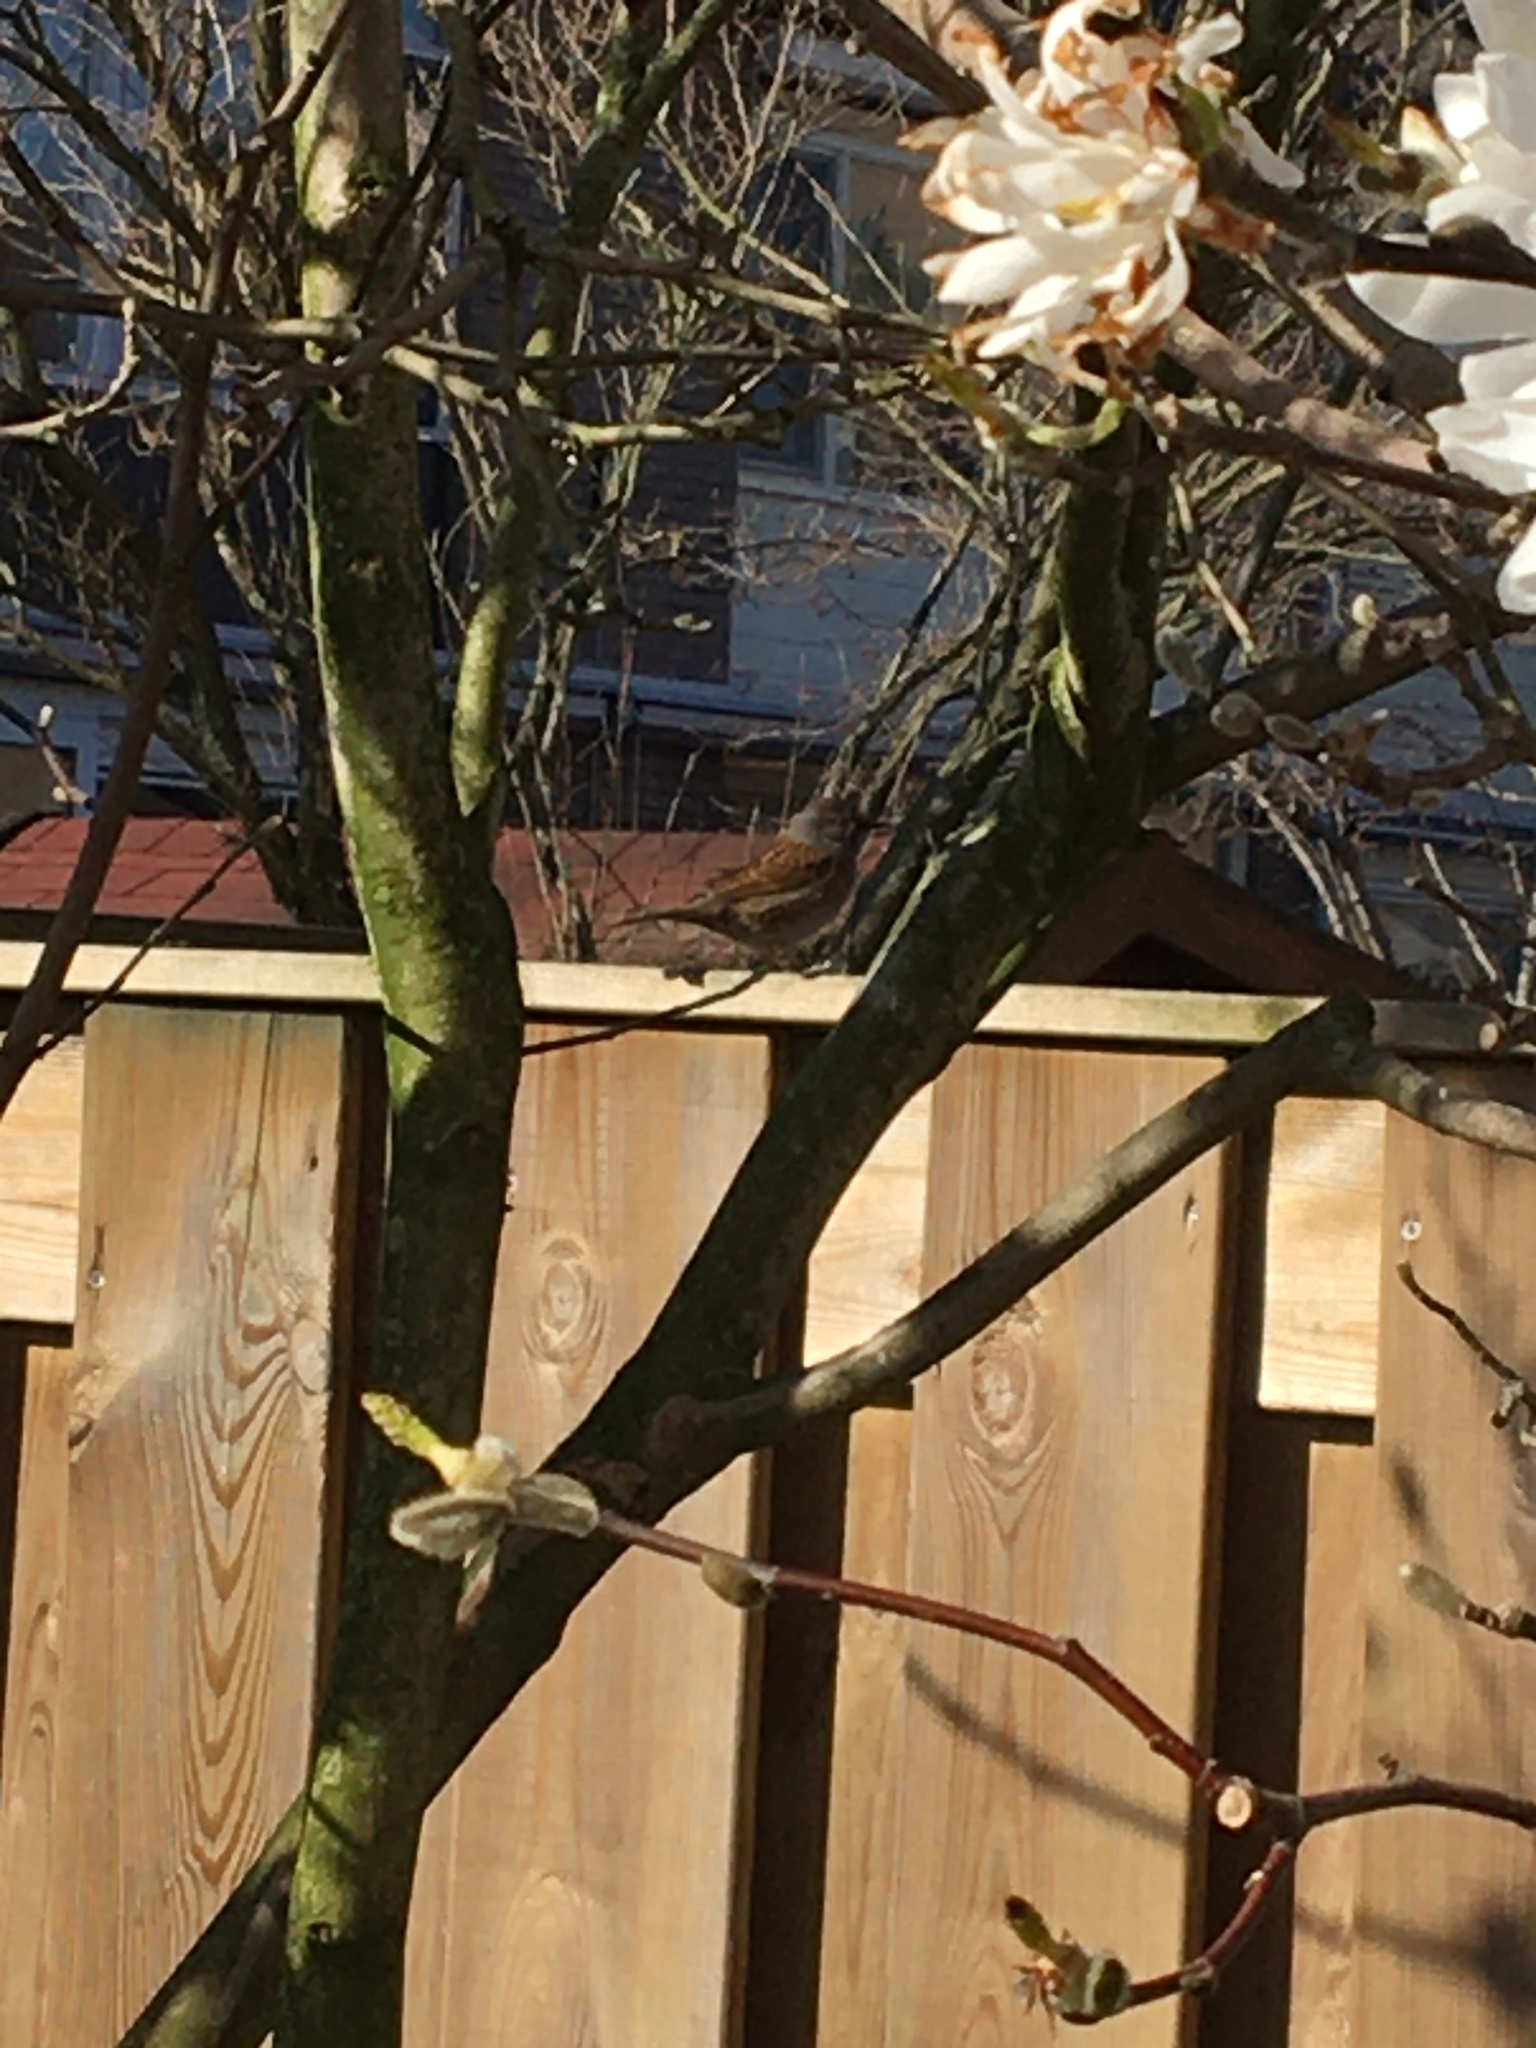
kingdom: Animalia
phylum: Chordata
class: Aves
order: Passeriformes
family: Prunellidae
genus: Prunella
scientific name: Prunella modularis
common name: Dunnock
